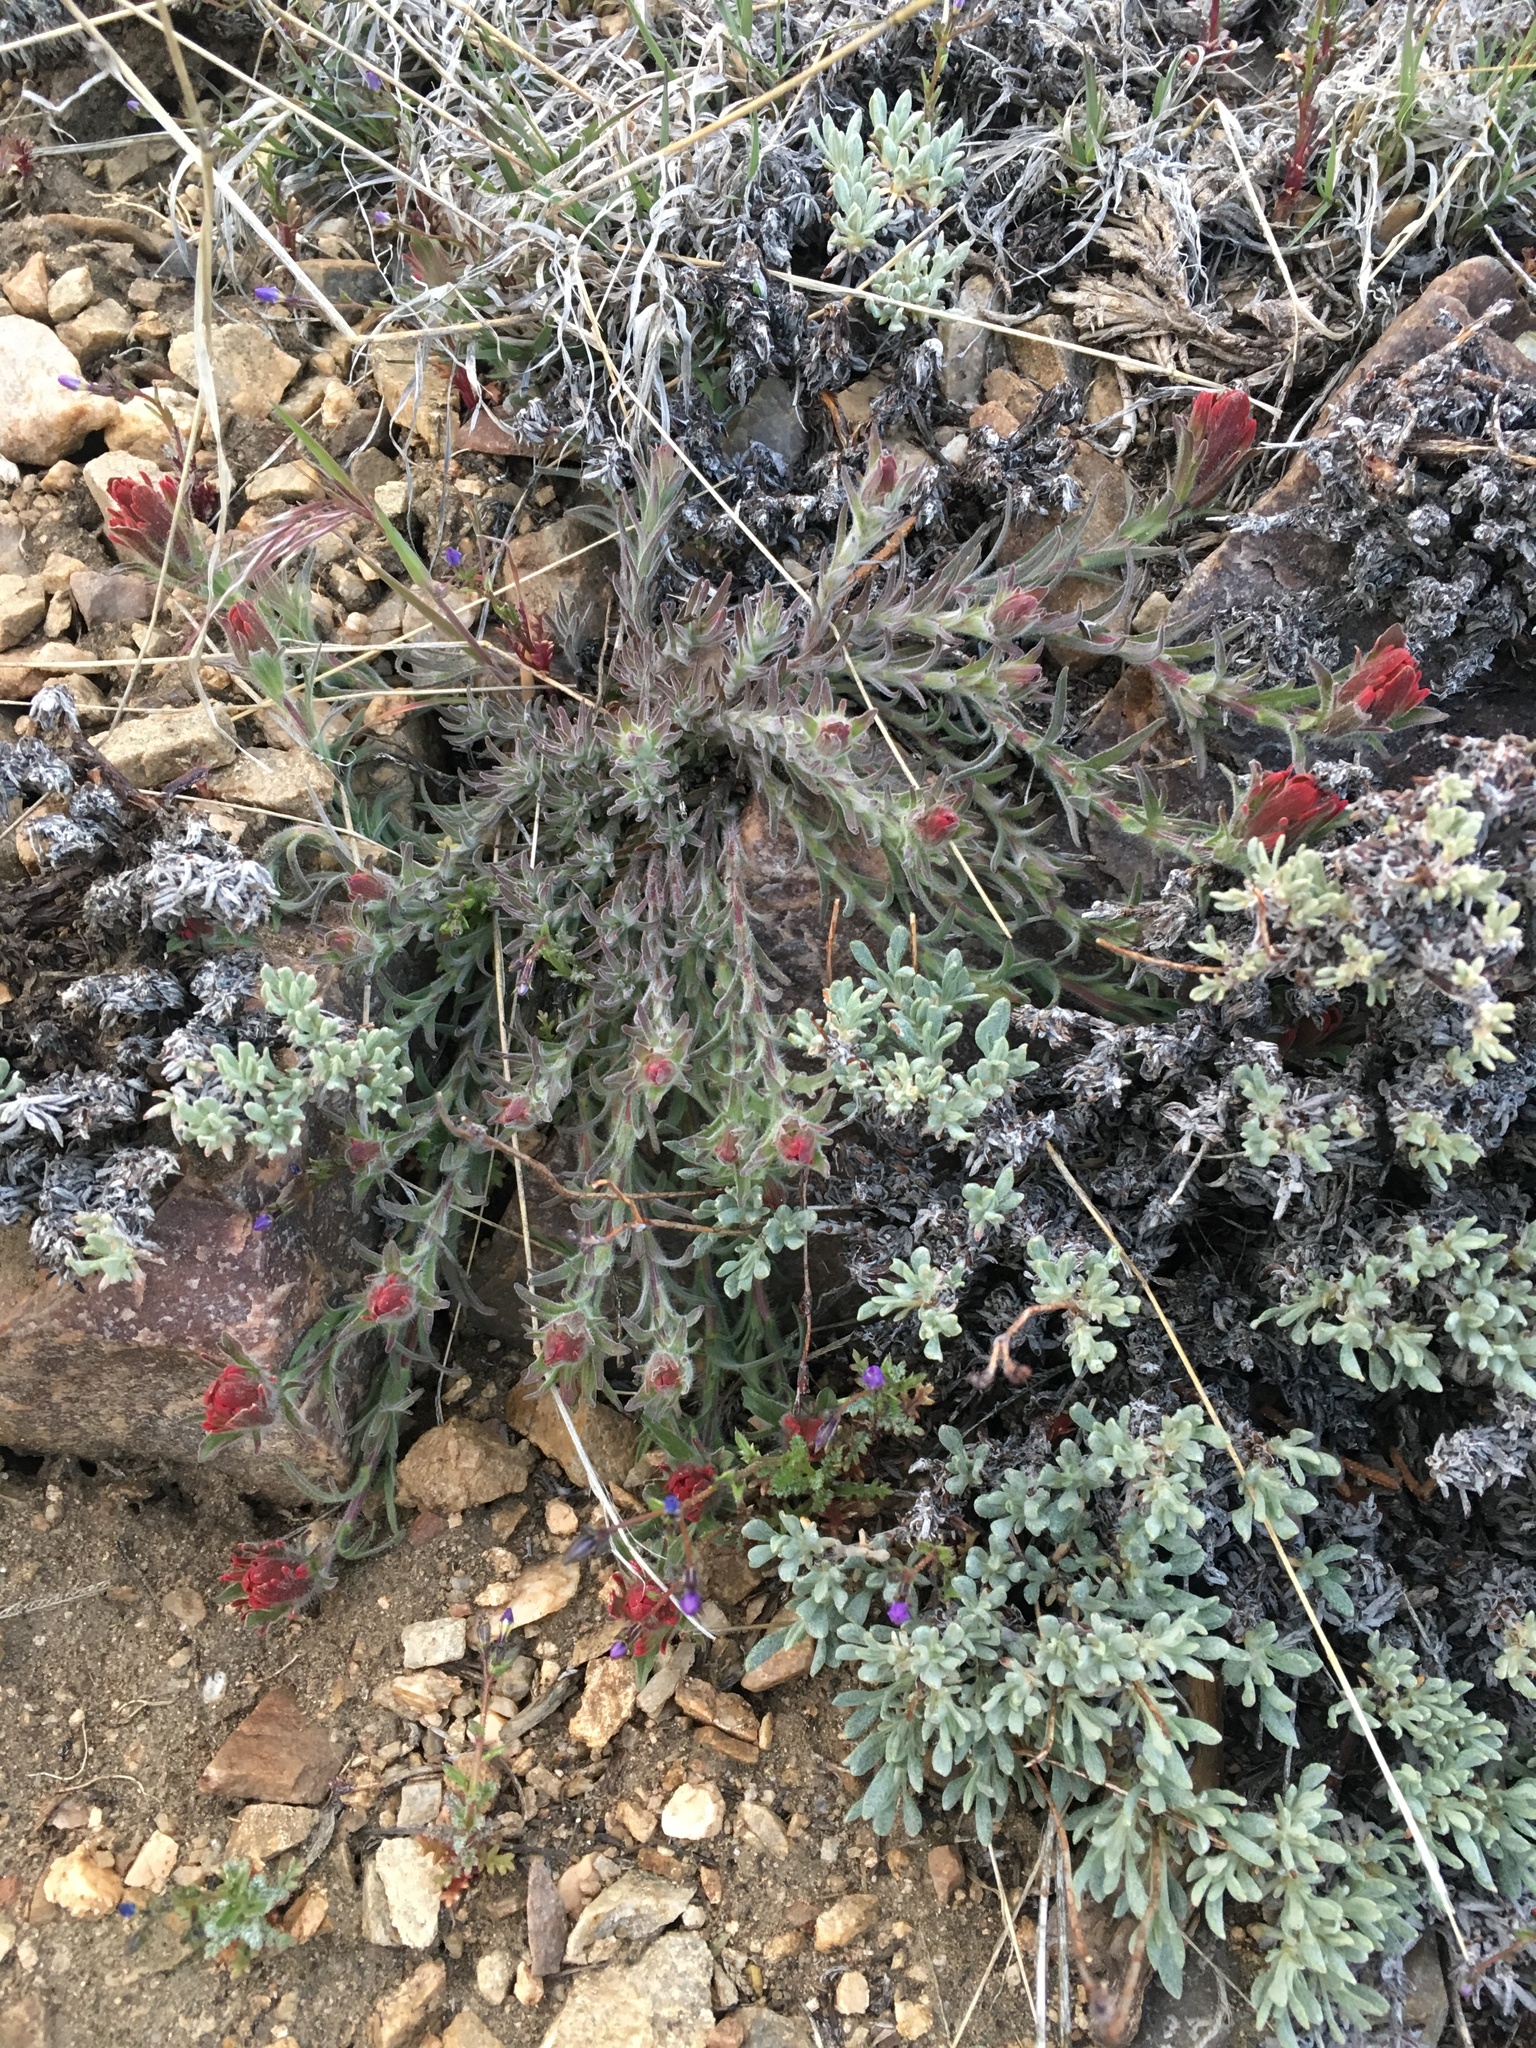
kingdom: Plantae
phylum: Tracheophyta
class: Magnoliopsida
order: Lamiales
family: Orobanchaceae
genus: Castilleja
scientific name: Castilleja cinerea
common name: Ash-gray indian paintbrush
